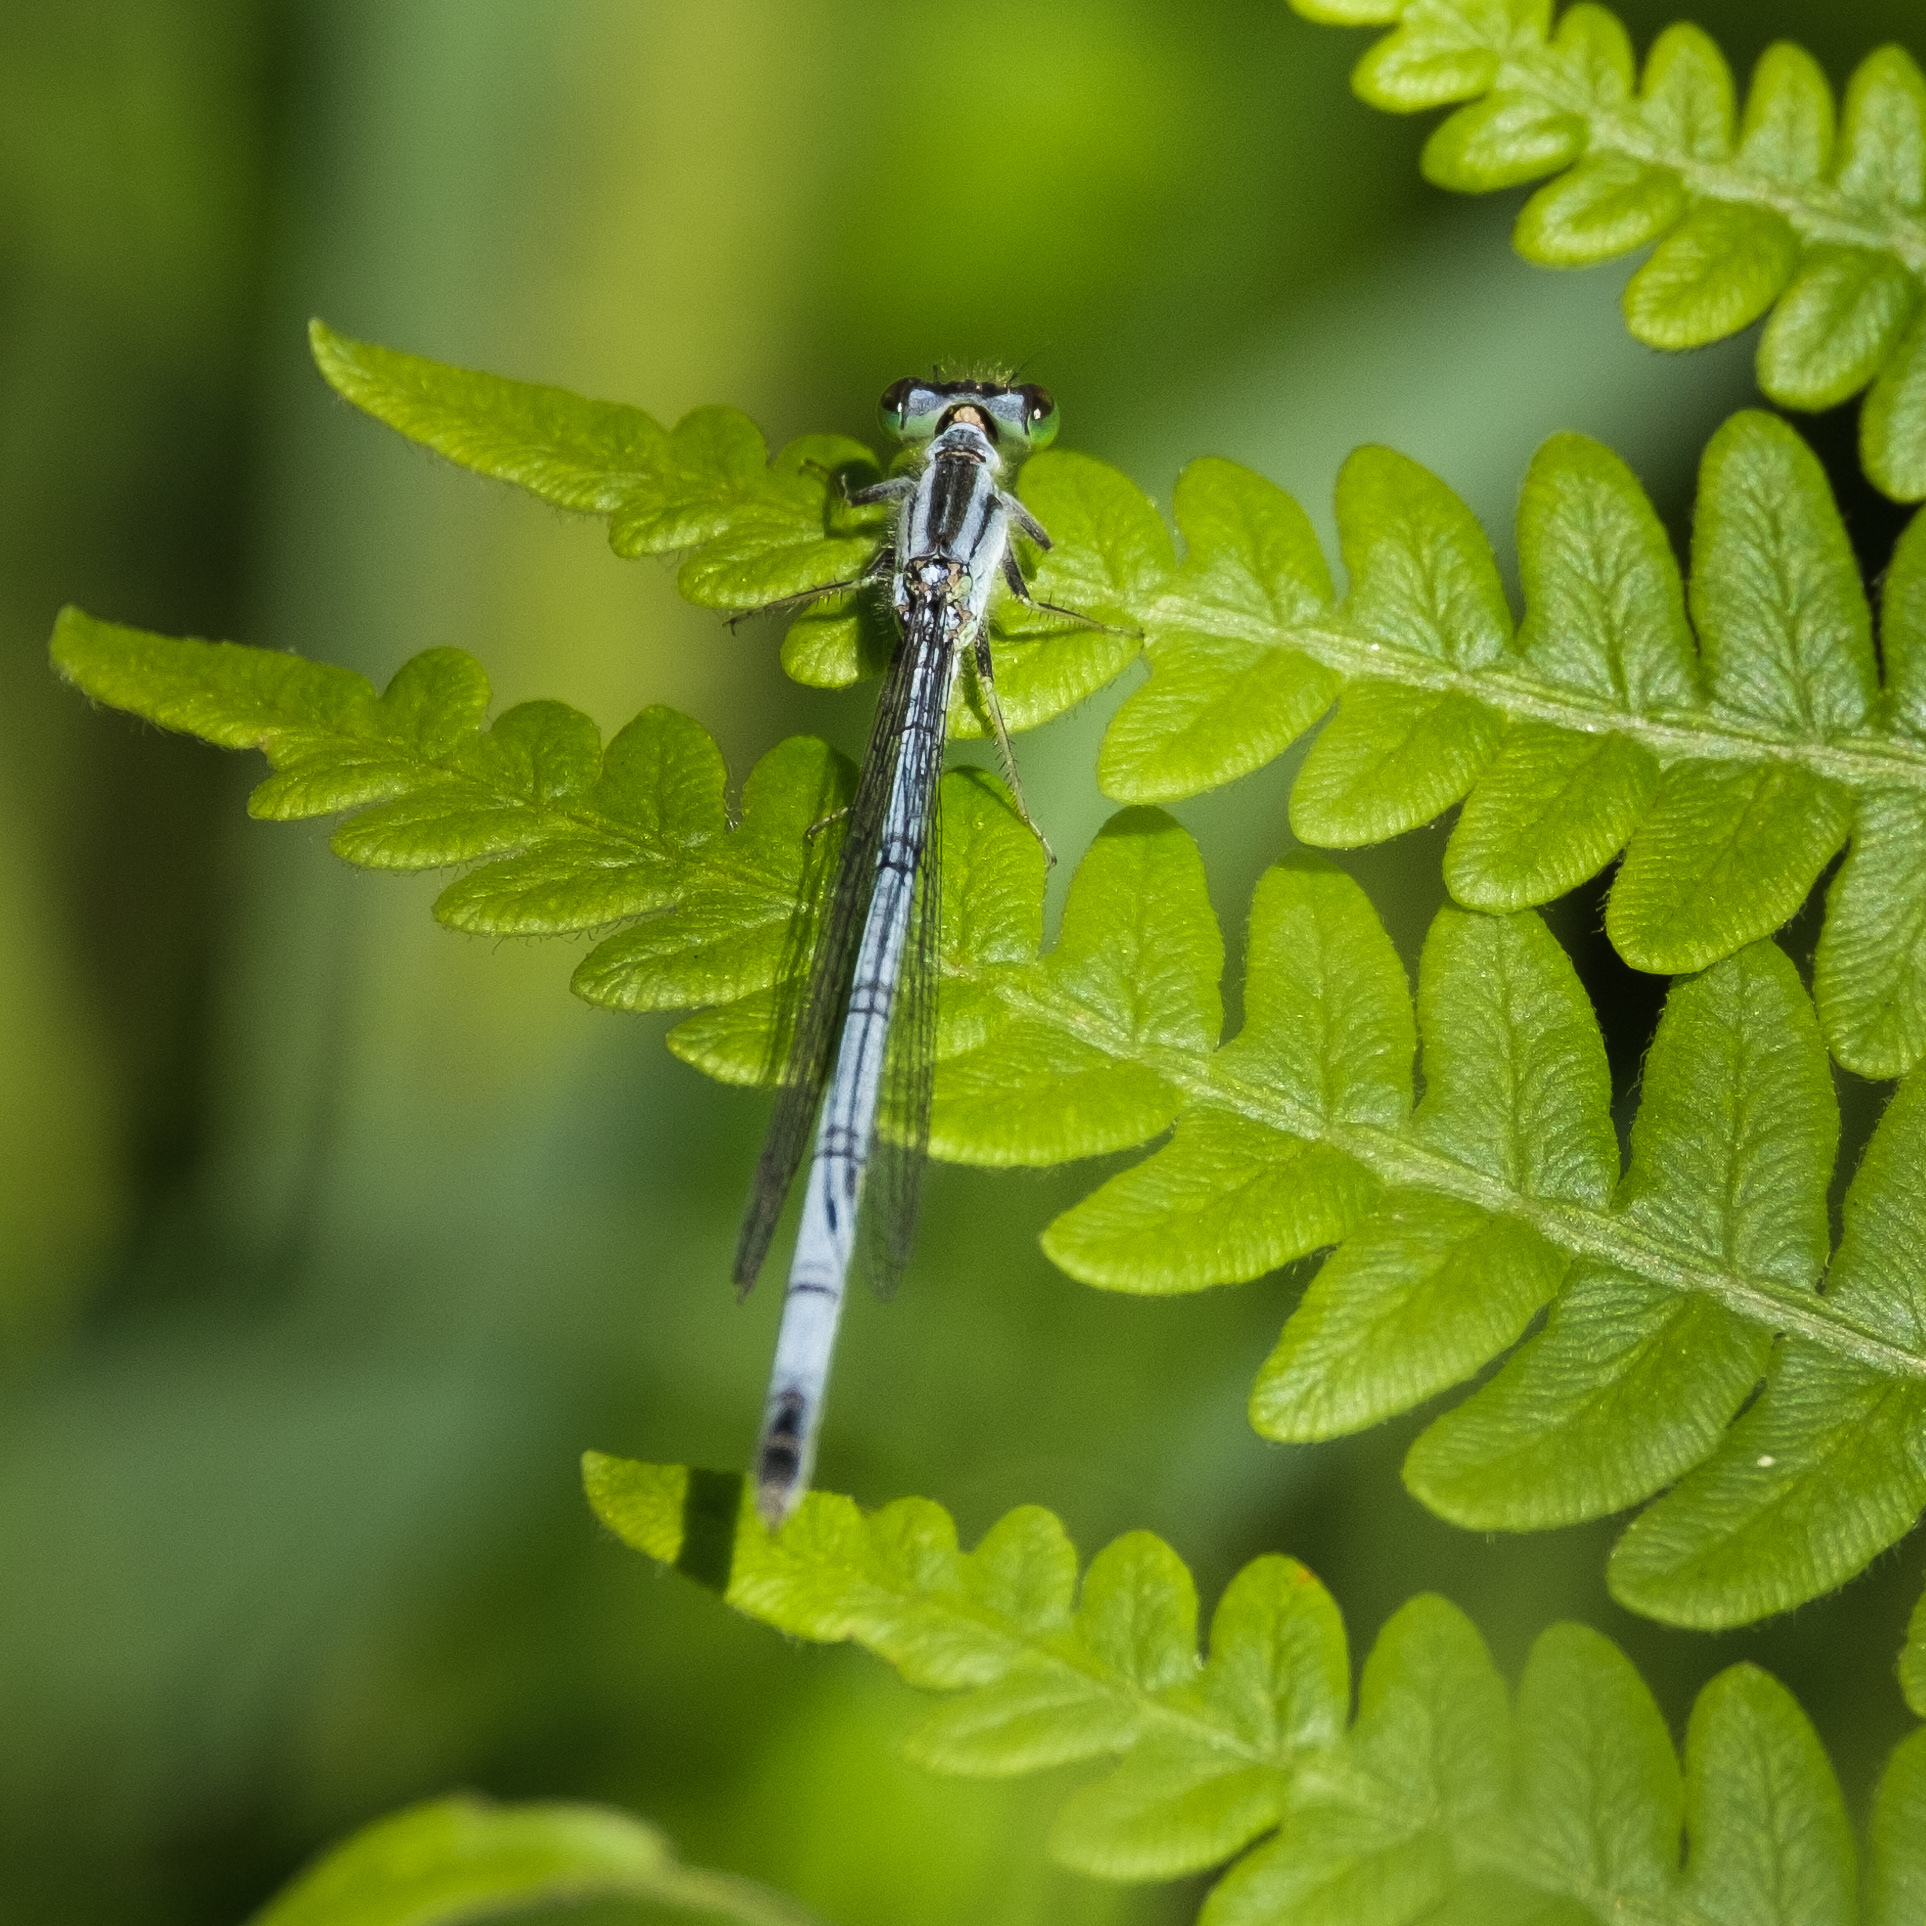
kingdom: Animalia
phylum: Arthropoda
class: Insecta
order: Odonata
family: Coenagrionidae
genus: Ischnura
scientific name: Ischnura verticalis
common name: Eastern forktail
